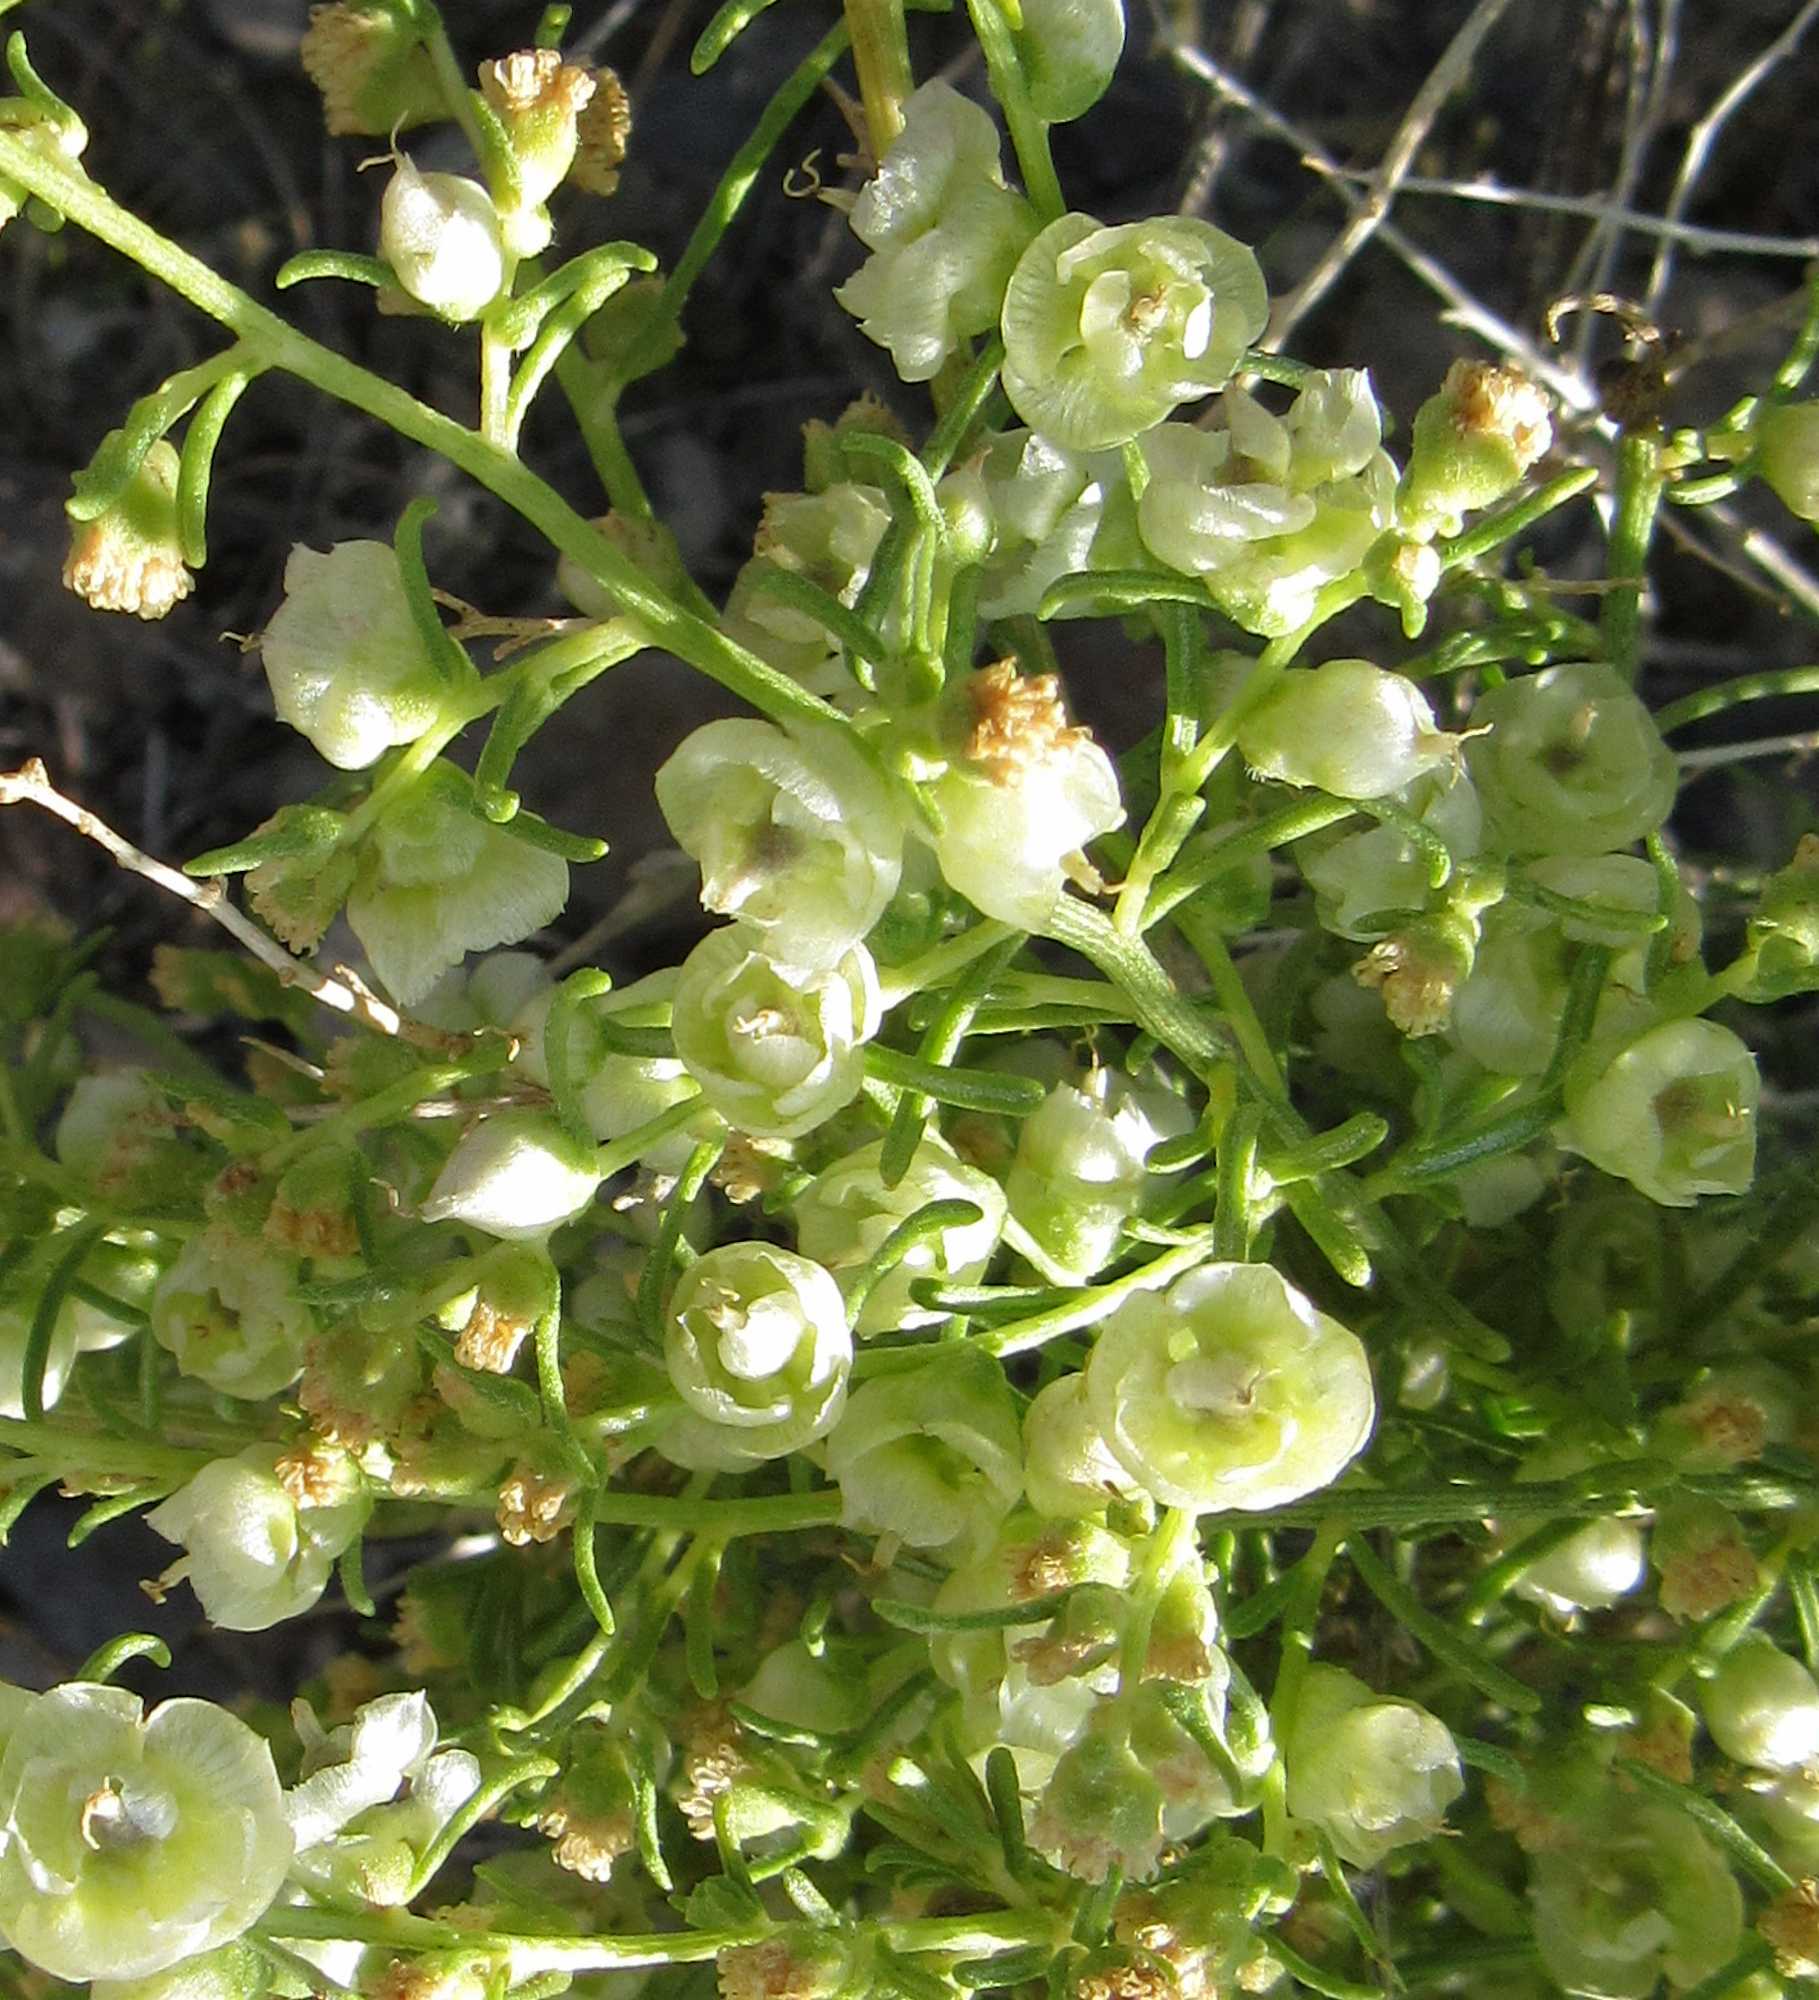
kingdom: Plantae
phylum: Tracheophyta
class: Magnoliopsida
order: Asterales
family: Asteraceae
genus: Ambrosia
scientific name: Ambrosia salsola
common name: Burrobrush
